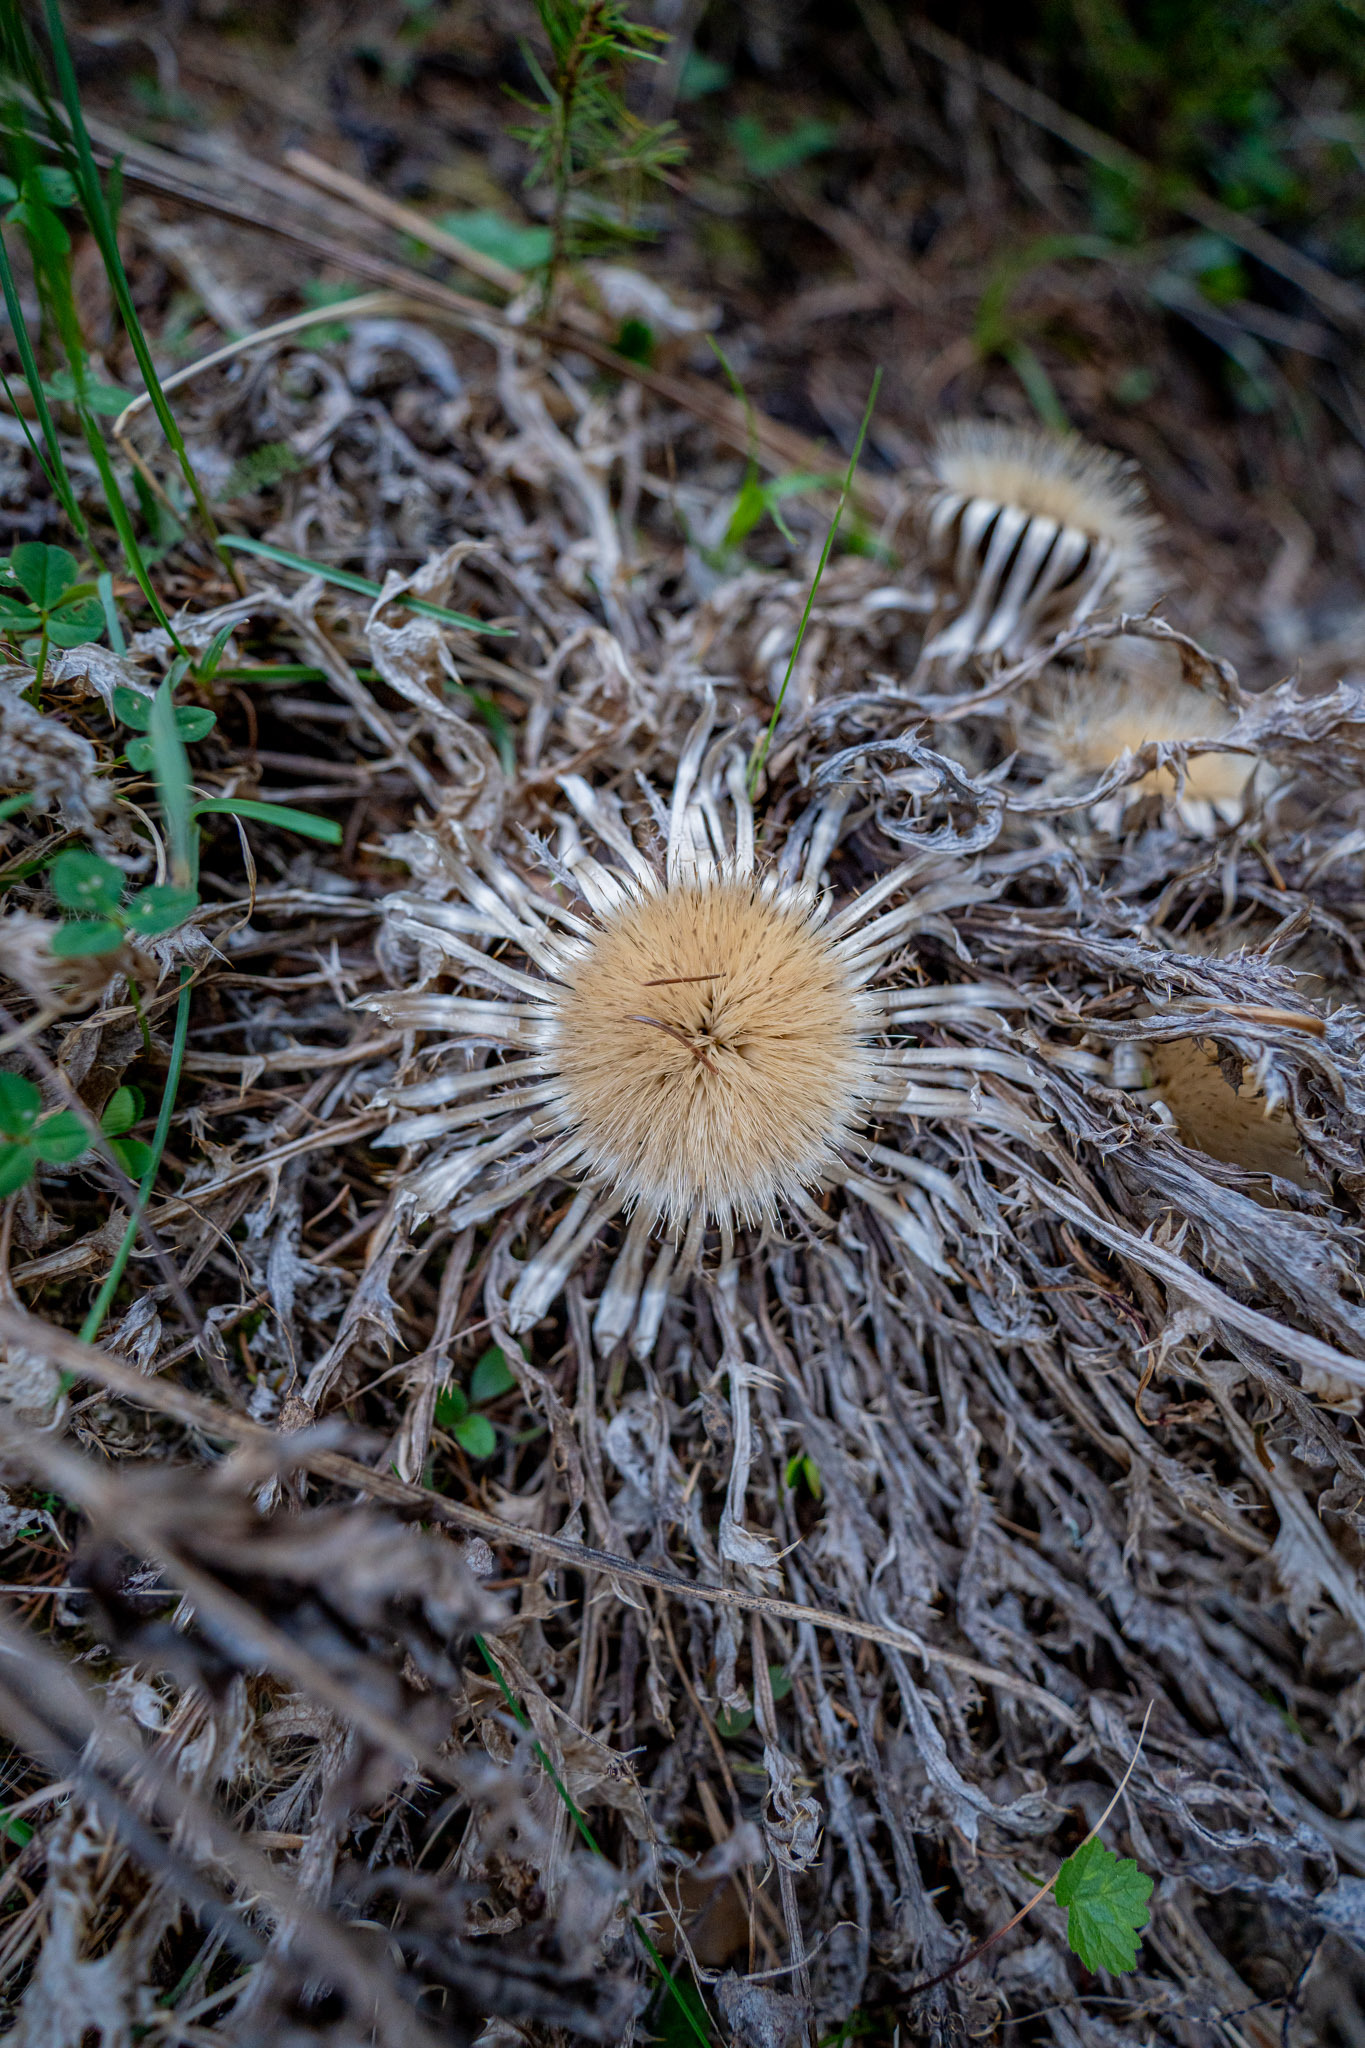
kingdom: Plantae
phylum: Tracheophyta
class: Magnoliopsida
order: Asterales
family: Asteraceae
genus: Carlina
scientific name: Carlina acaulis
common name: Stemless carline thistle
